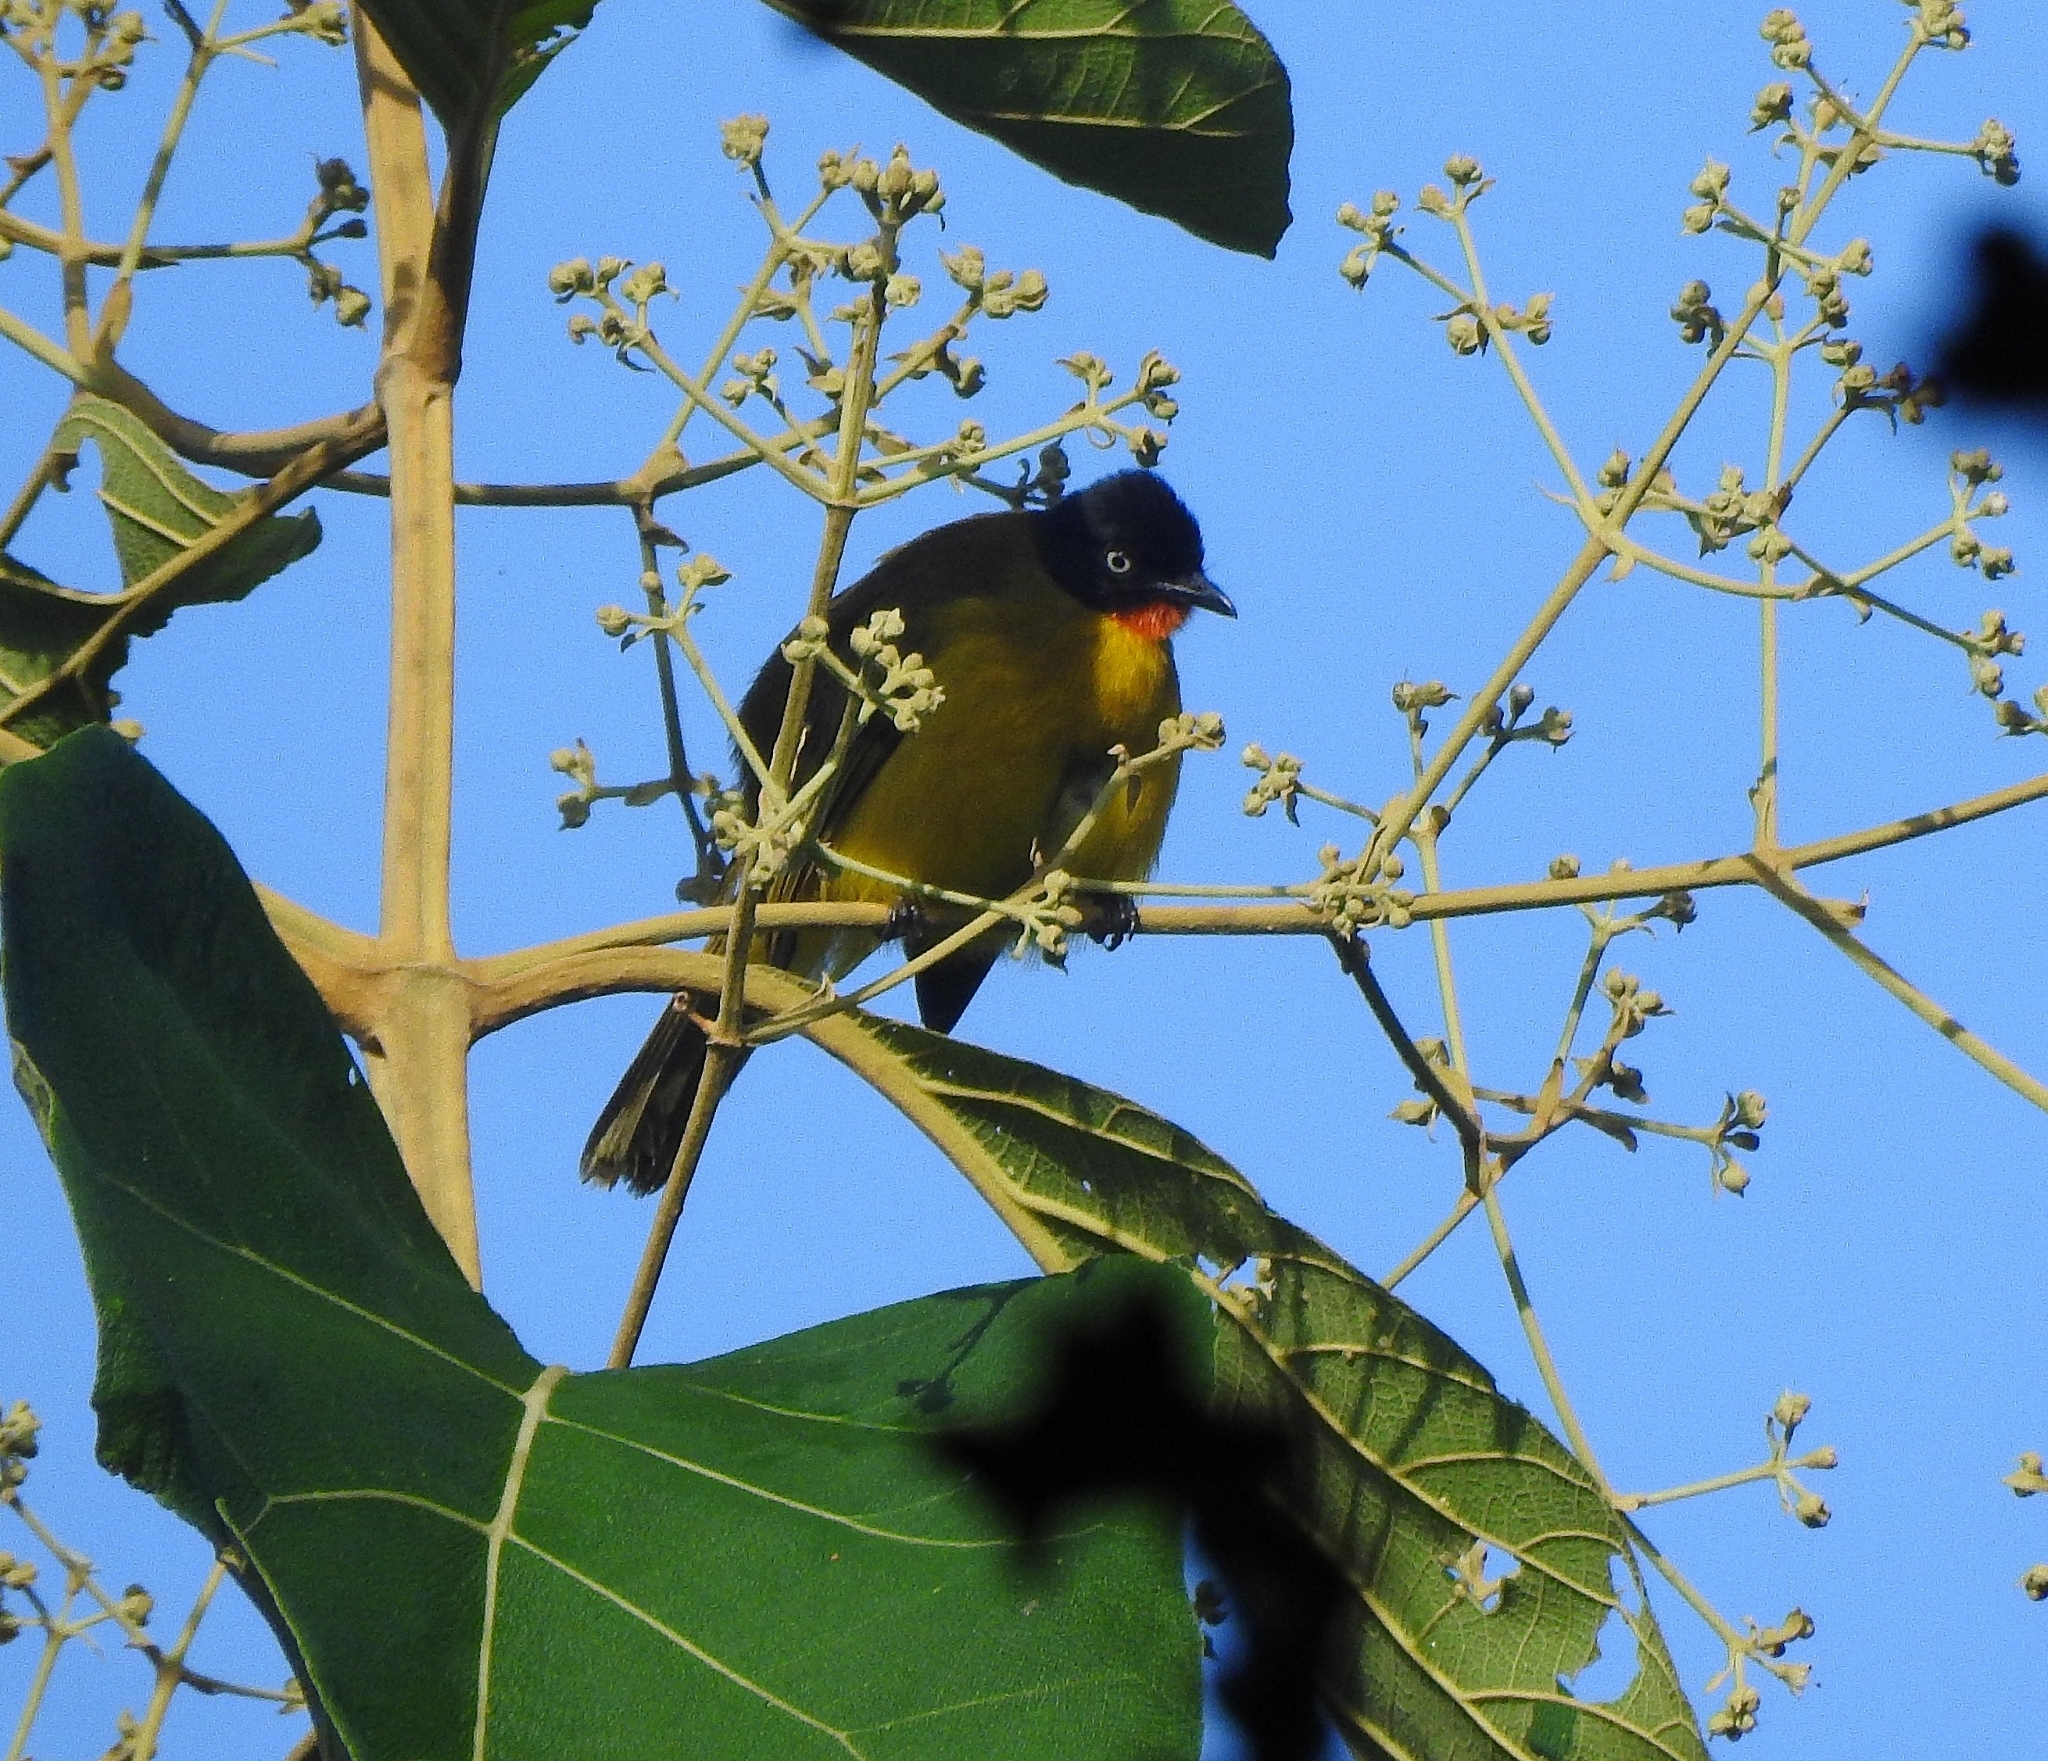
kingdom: Animalia
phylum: Chordata
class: Aves
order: Passeriformes
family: Pycnonotidae
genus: Pycnonotus
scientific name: Pycnonotus gularis
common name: Flame-throated bulbul
